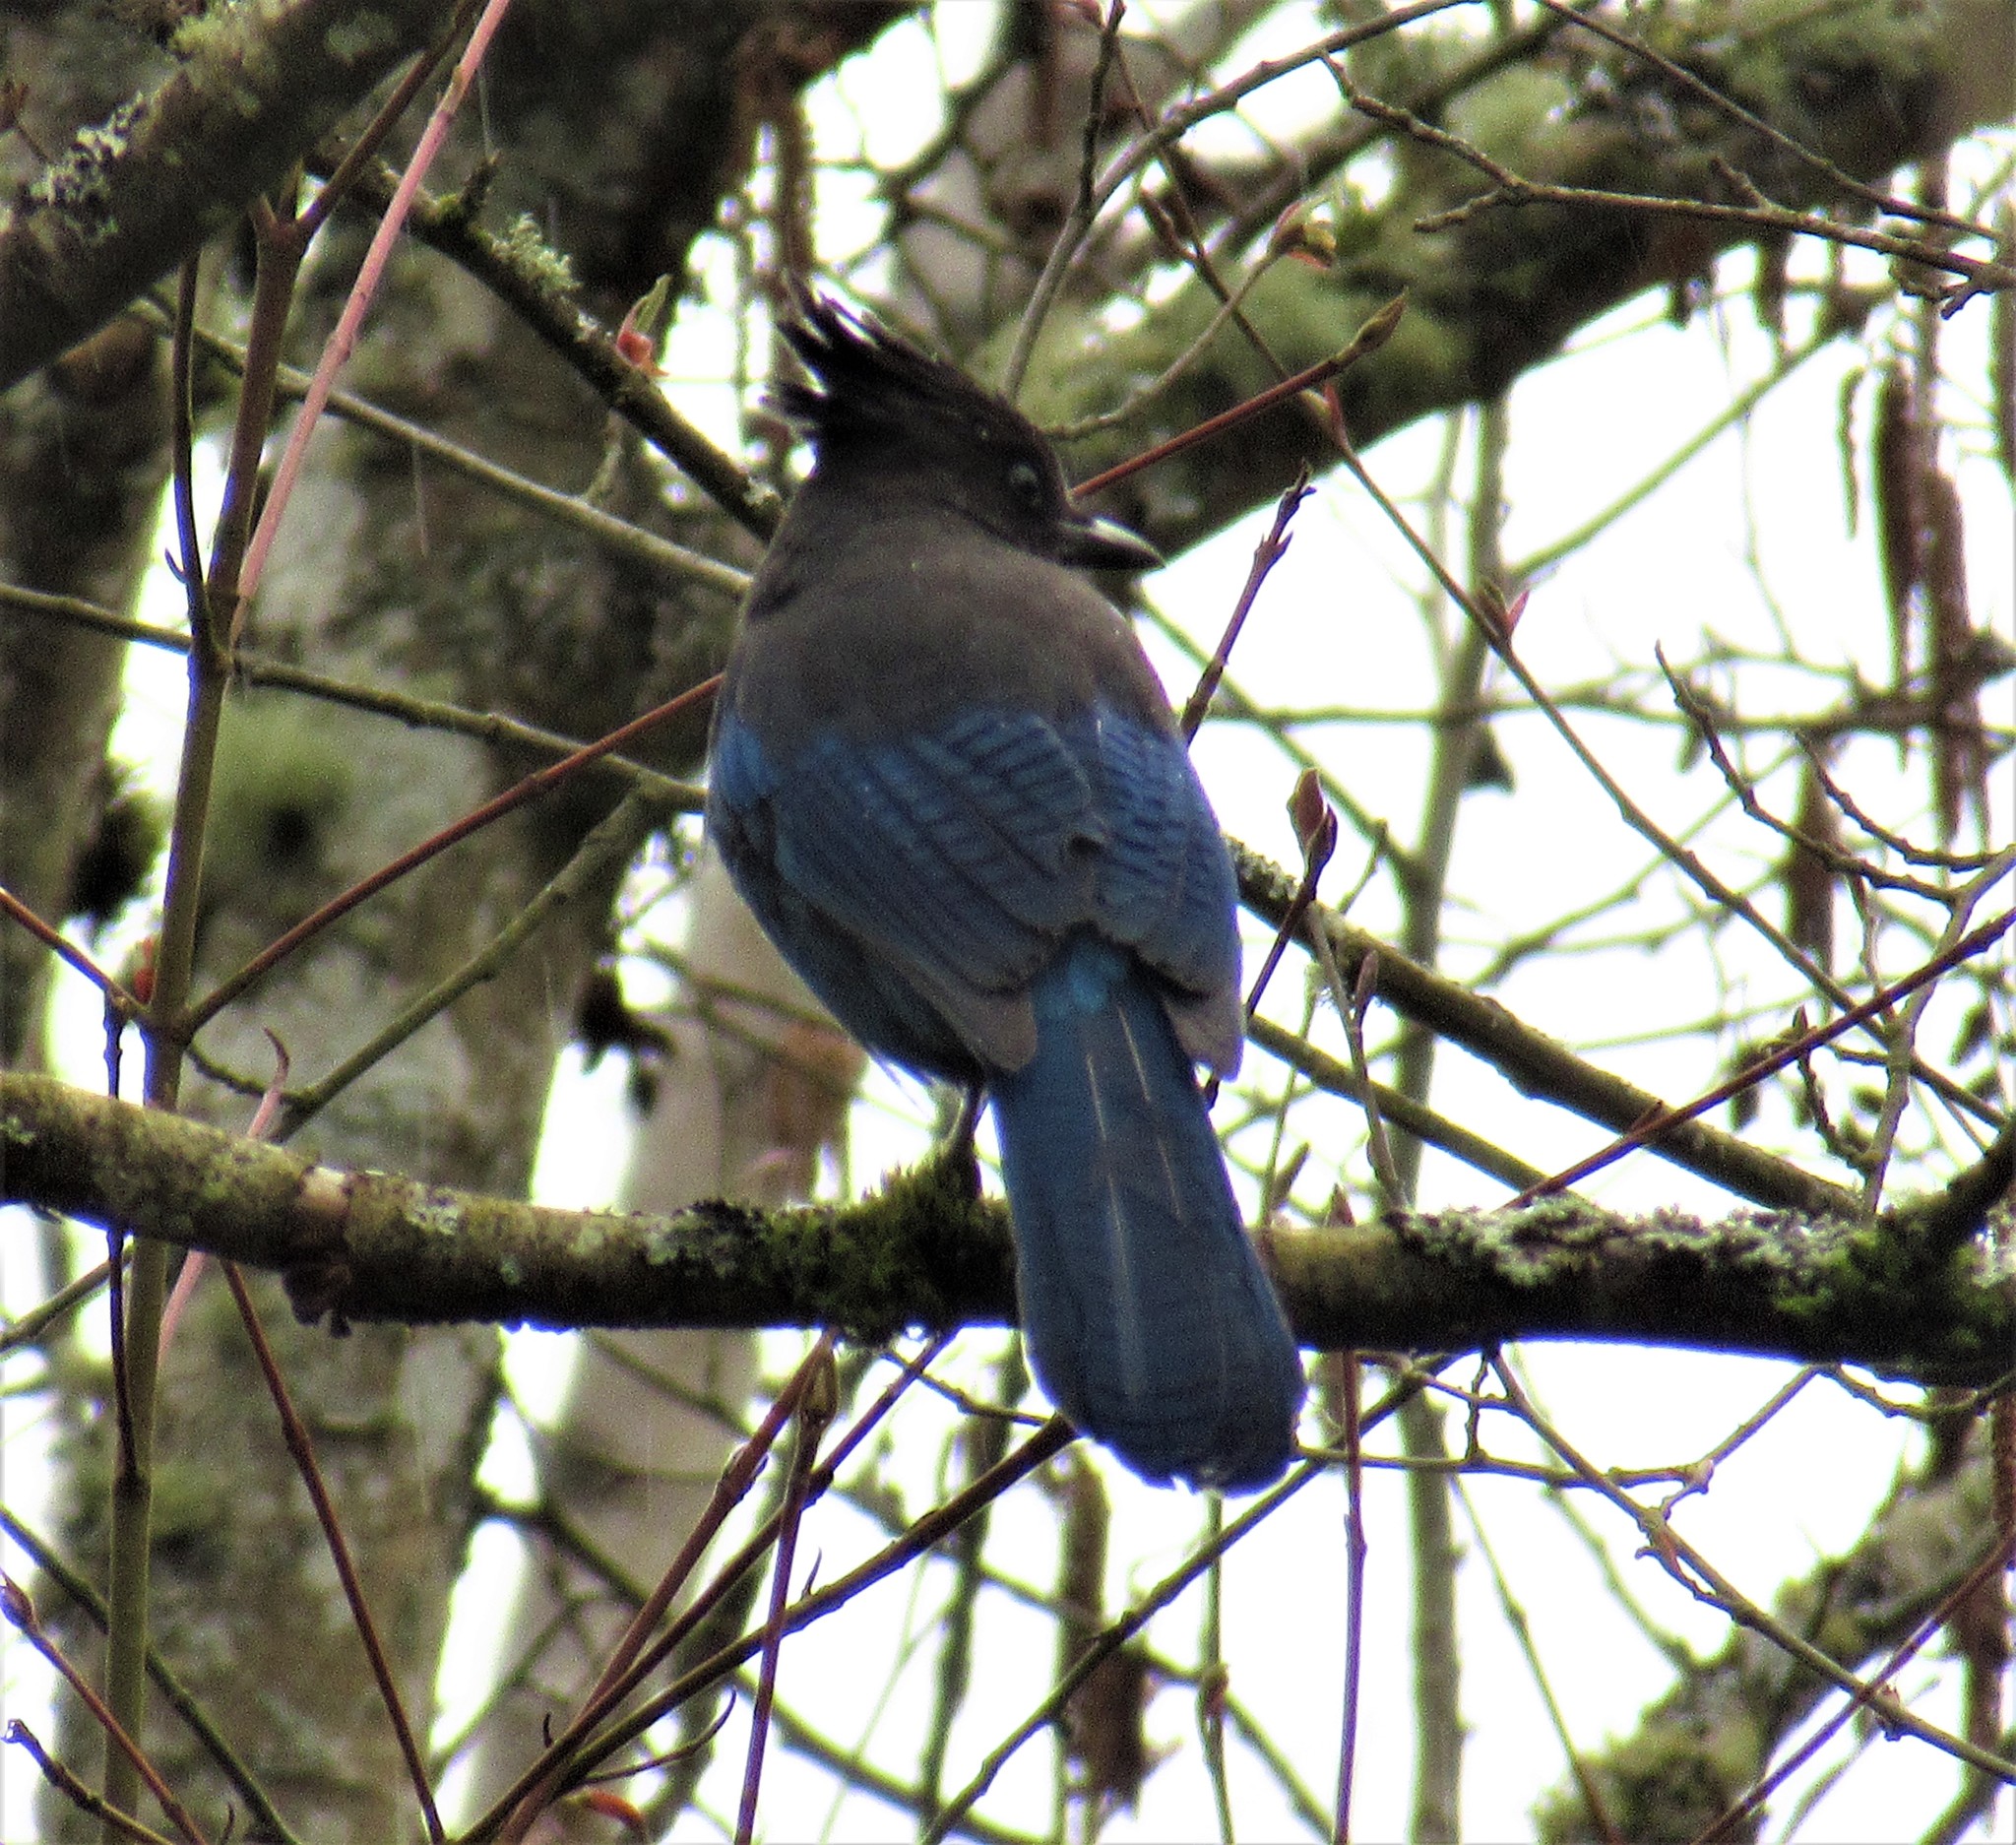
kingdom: Animalia
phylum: Chordata
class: Aves
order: Passeriformes
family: Corvidae
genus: Cyanocitta
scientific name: Cyanocitta stelleri
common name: Steller's jay
